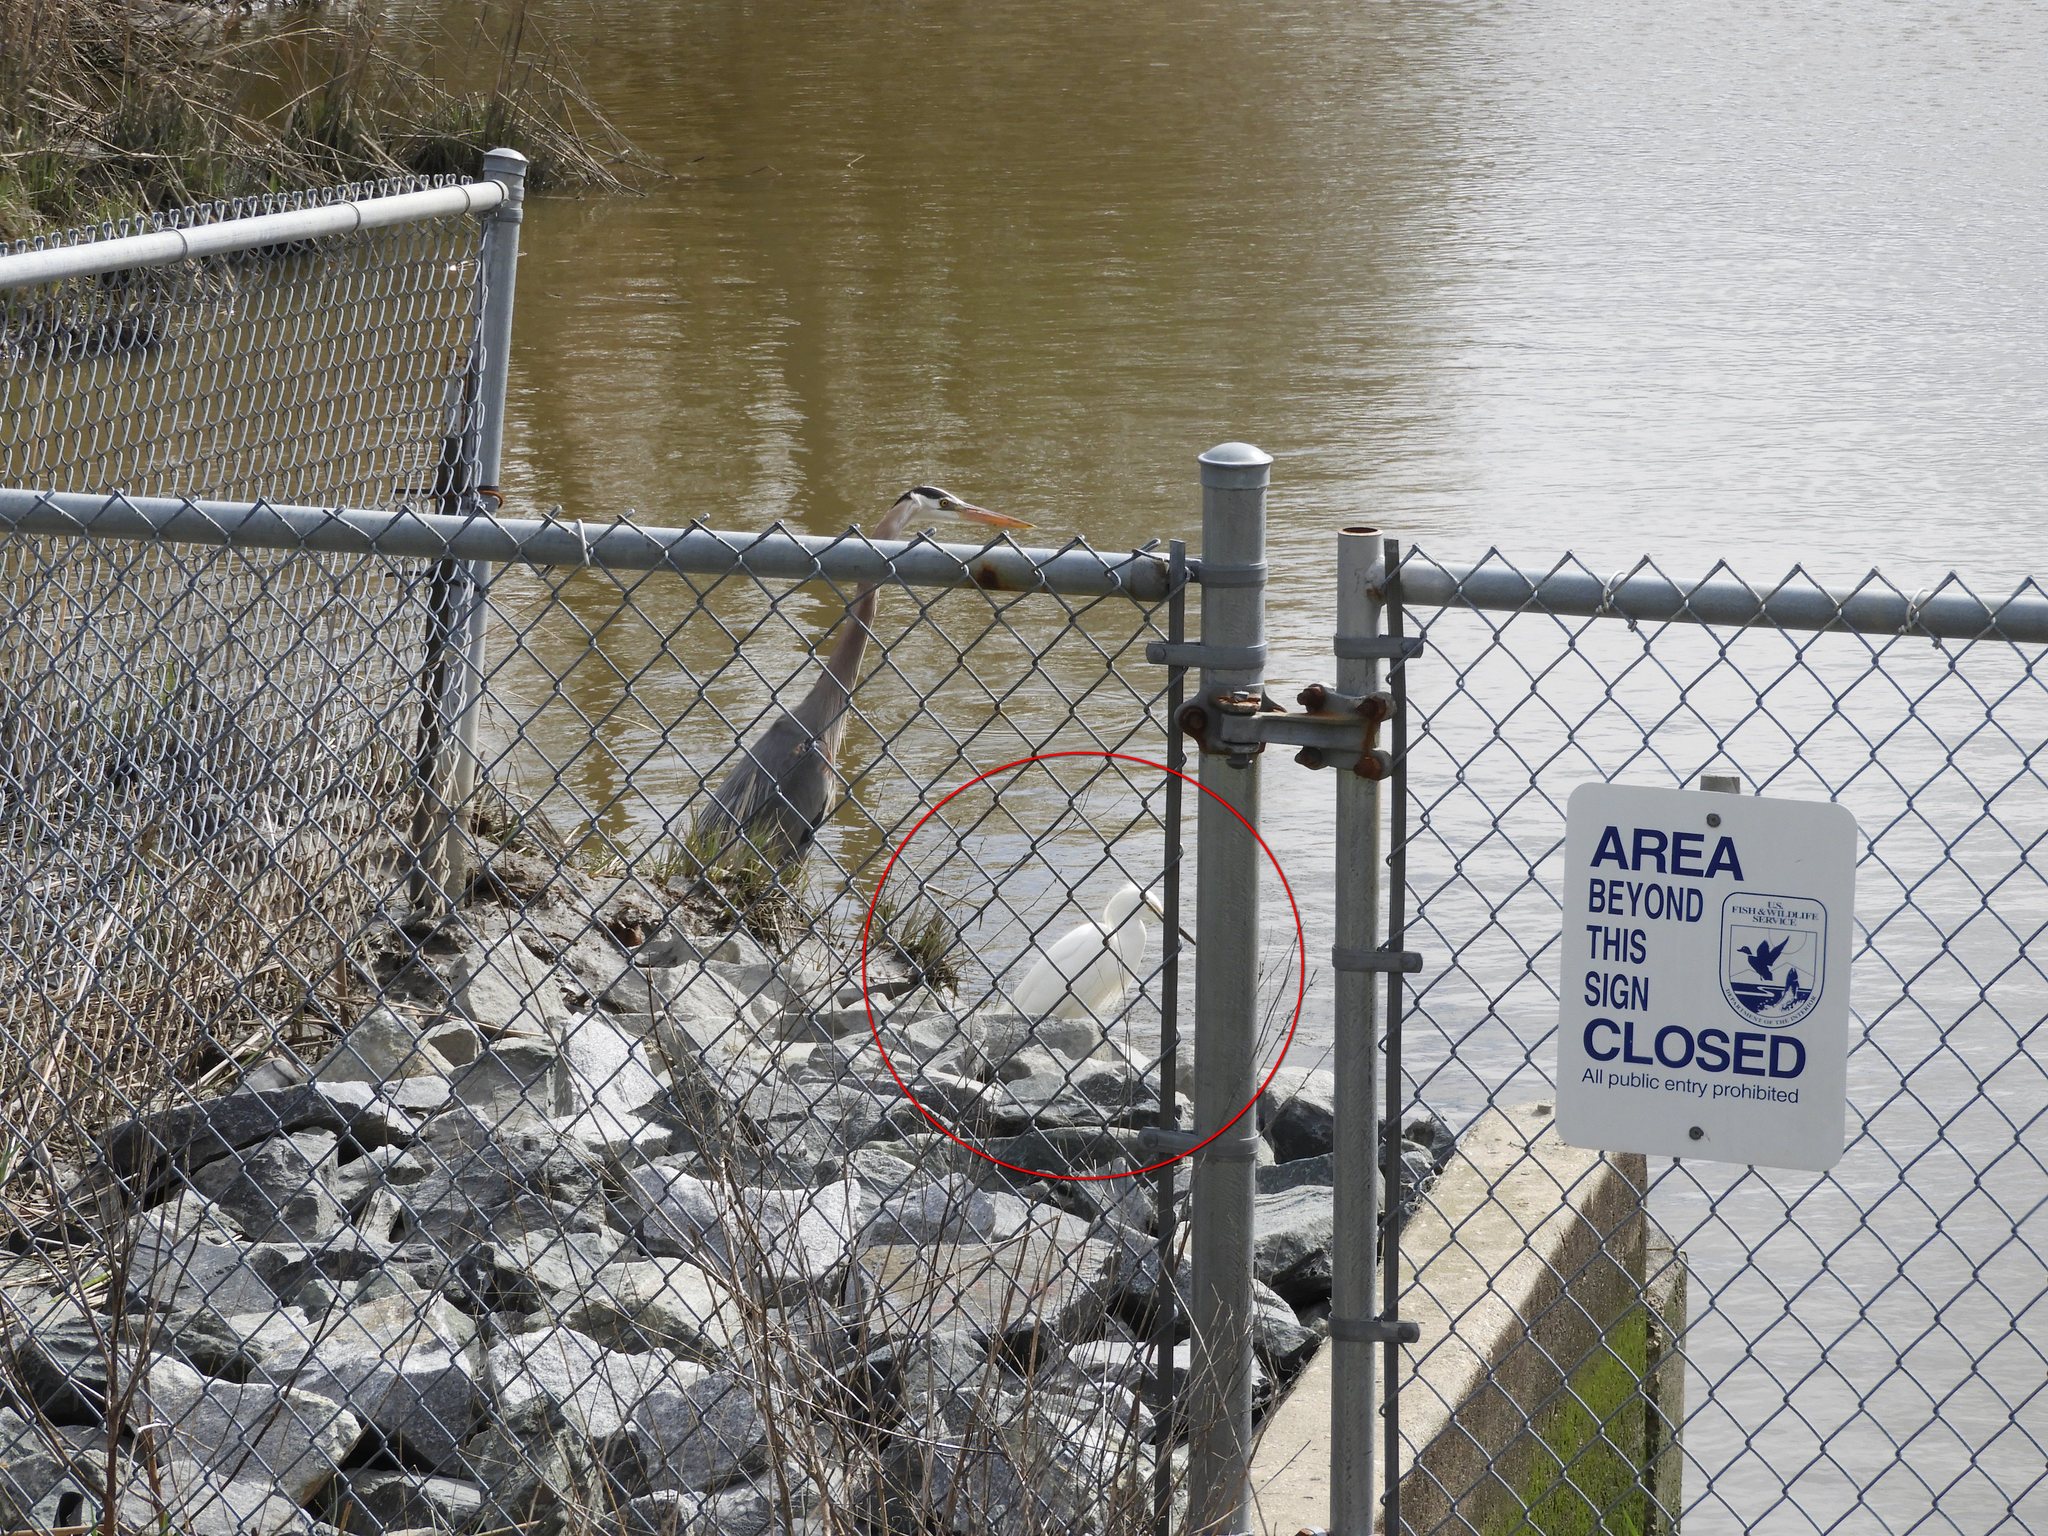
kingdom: Animalia
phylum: Chordata
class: Aves
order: Pelecaniformes
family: Ardeidae
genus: Egretta
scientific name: Egretta thula
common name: Snowy egret
